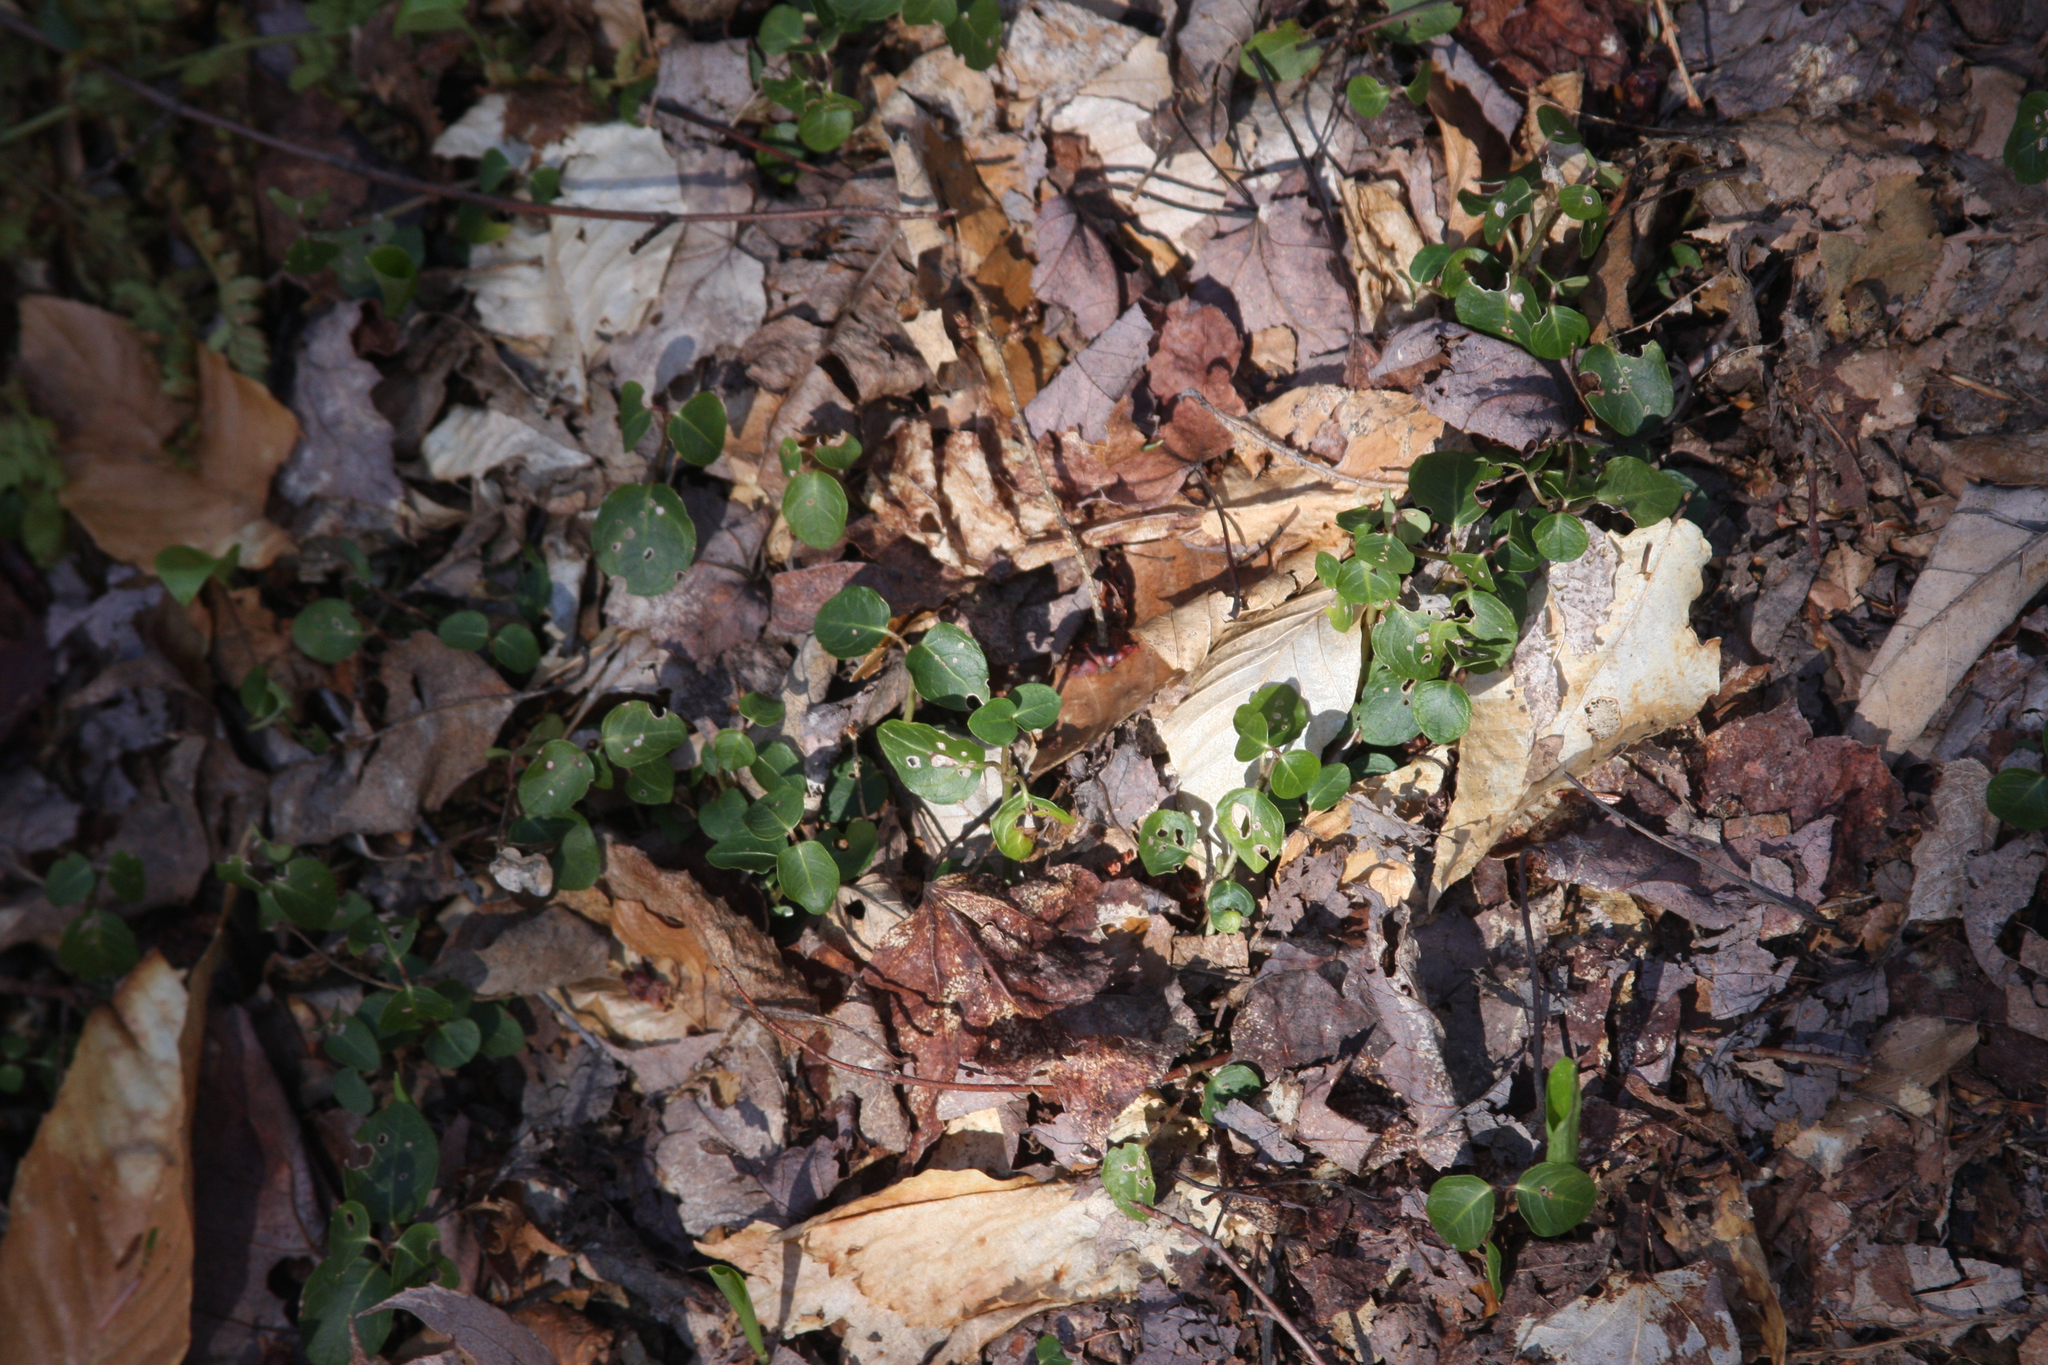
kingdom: Plantae
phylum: Tracheophyta
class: Magnoliopsida
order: Gentianales
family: Rubiaceae
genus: Mitchella
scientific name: Mitchella repens
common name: Partridge-berry
